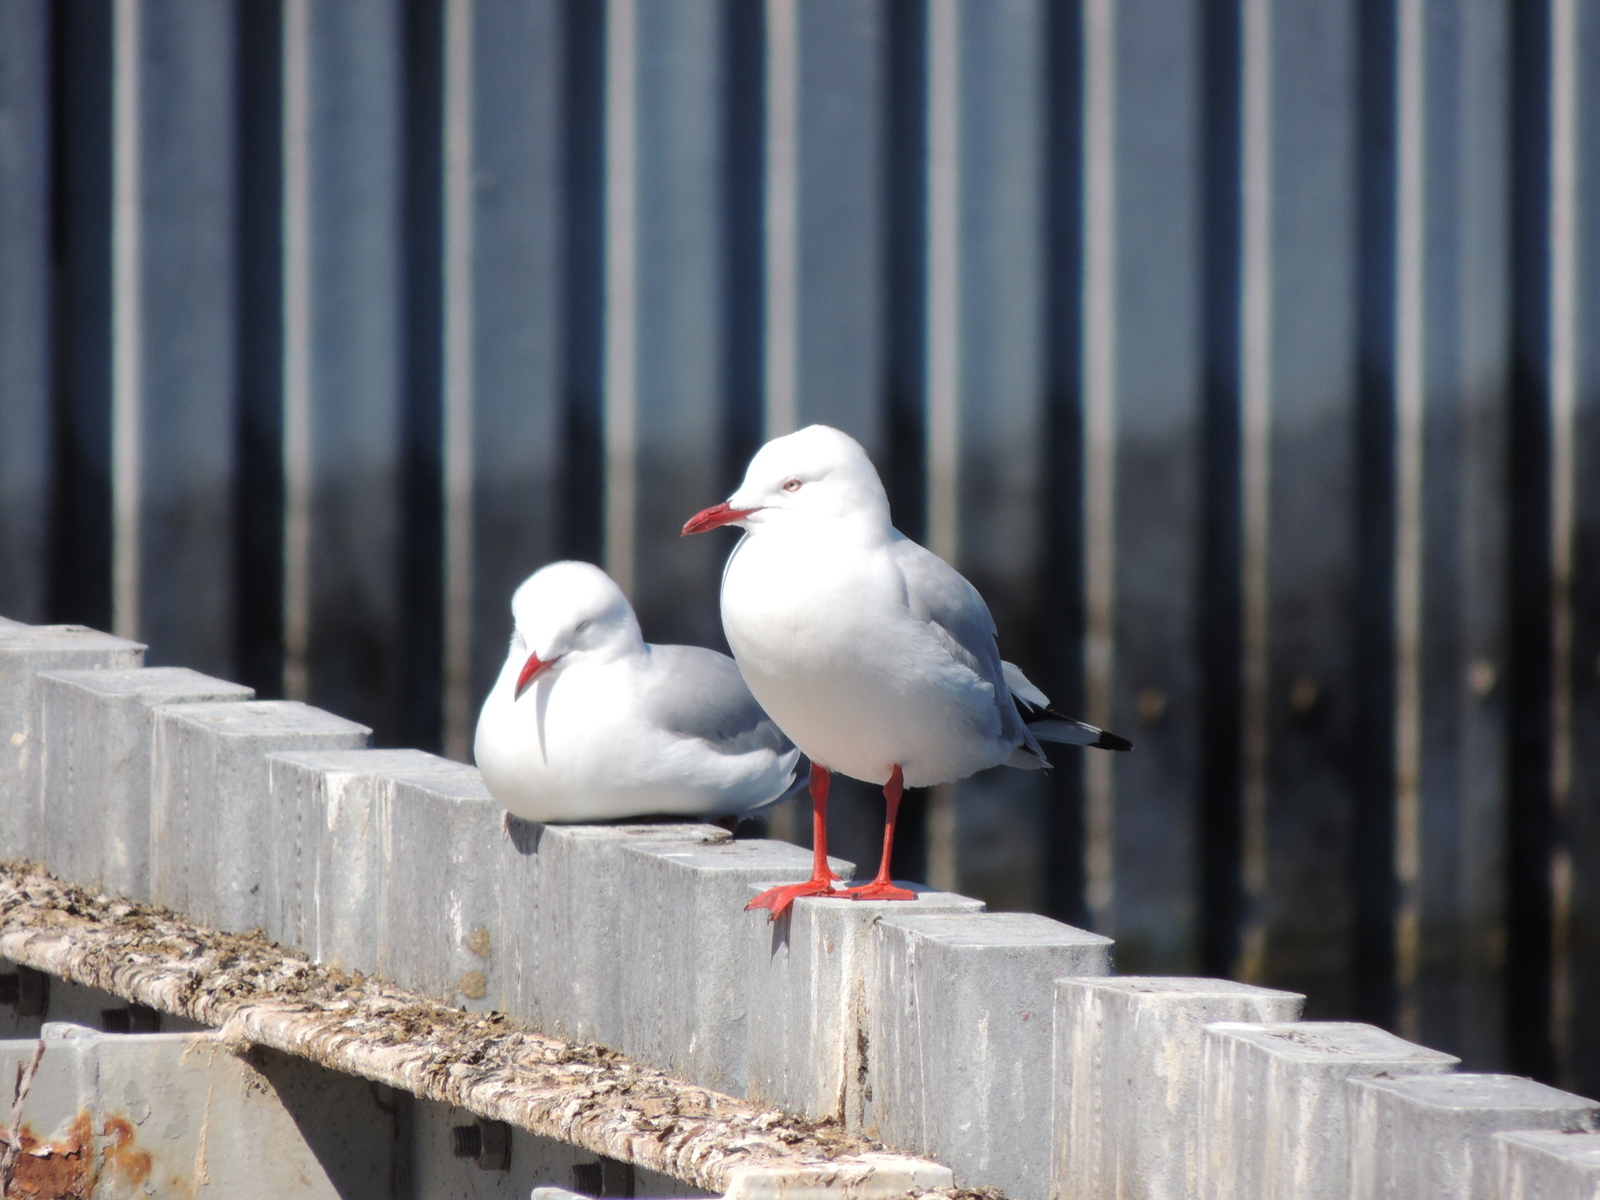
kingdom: Animalia
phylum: Chordata
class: Aves
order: Charadriiformes
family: Laridae
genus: Chroicocephalus
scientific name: Chroicocephalus novaehollandiae
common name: Silver gull
